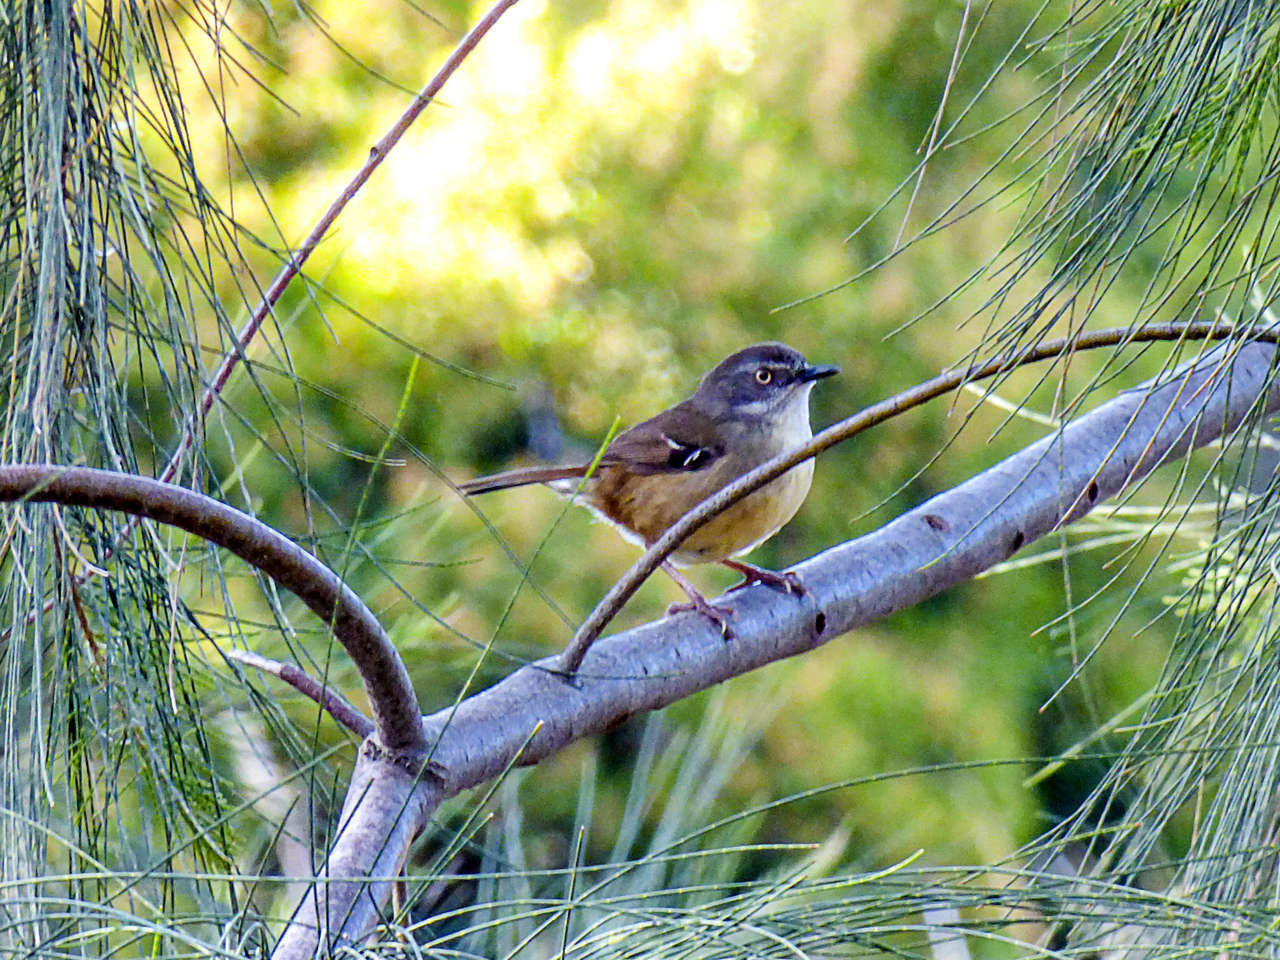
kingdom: Animalia
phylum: Chordata
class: Aves
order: Passeriformes
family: Acanthizidae
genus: Sericornis
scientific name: Sericornis frontalis
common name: White-browed scrubwren
